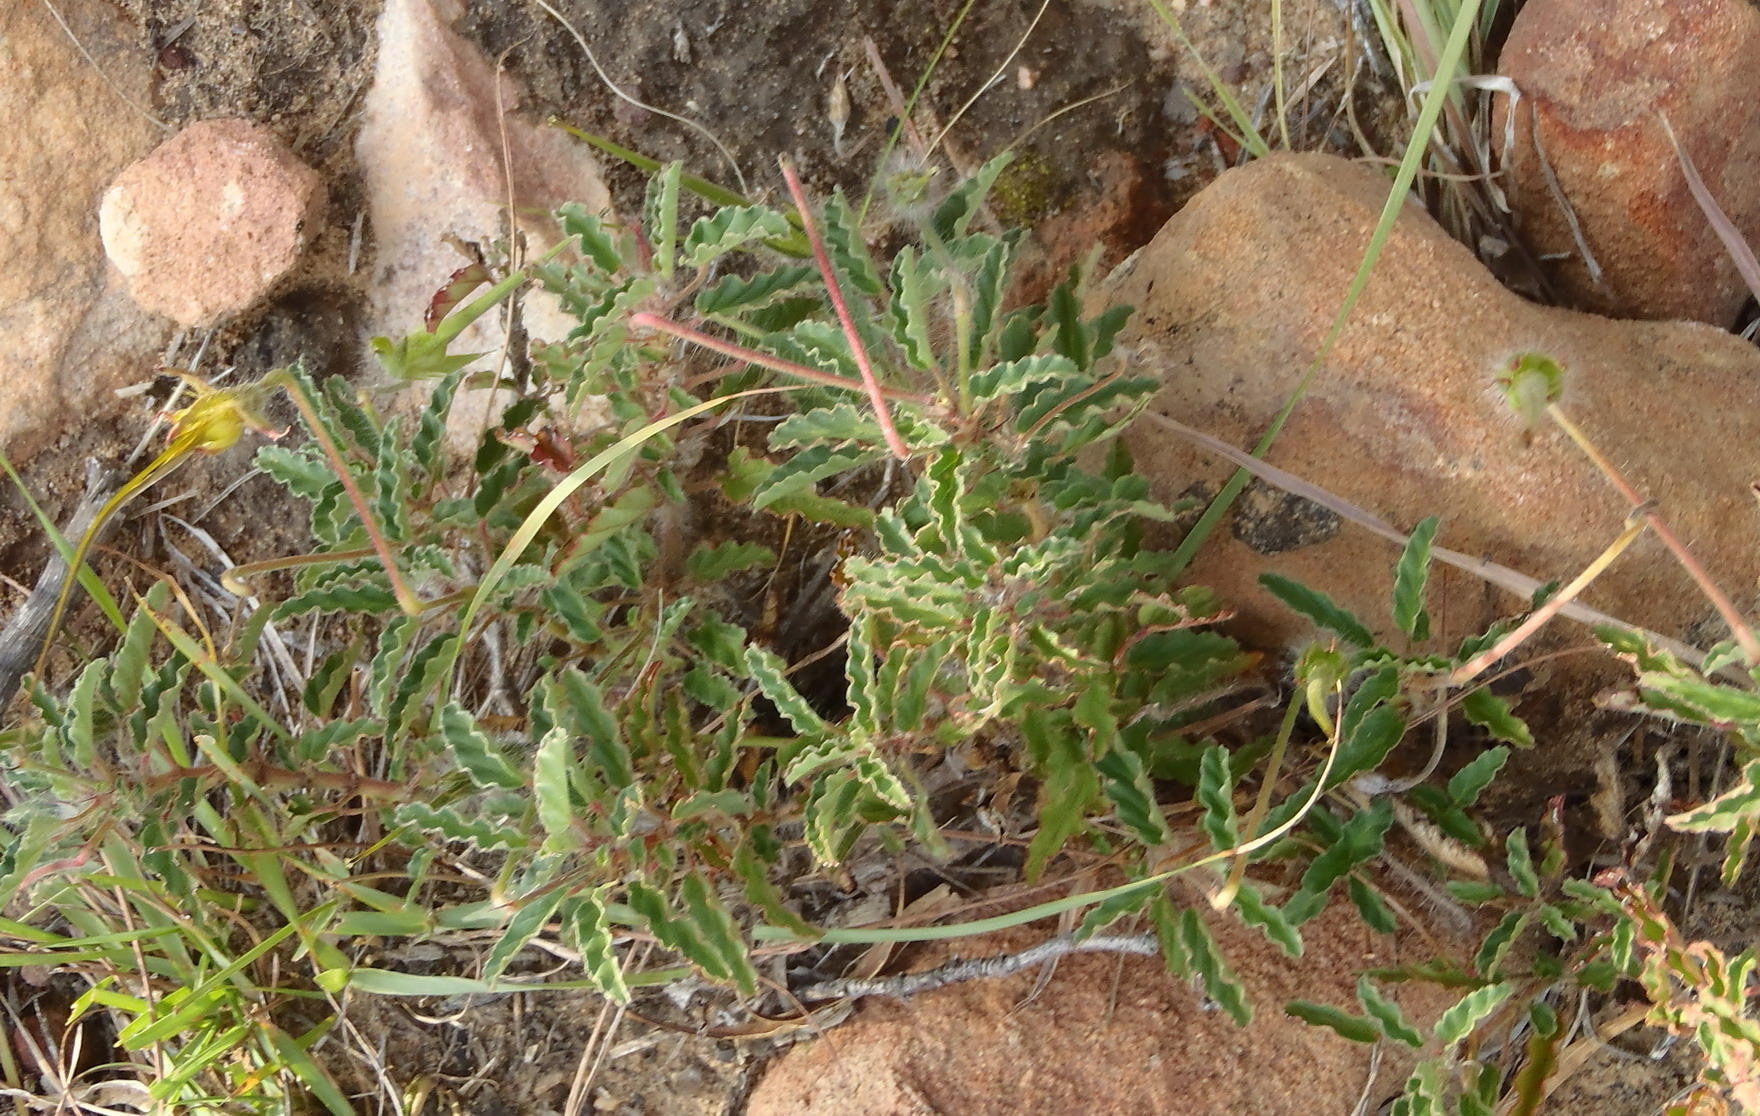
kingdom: Plantae
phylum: Tracheophyta
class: Magnoliopsida
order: Geraniales
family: Geraniaceae
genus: Monsonia
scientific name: Monsonia emarginata
